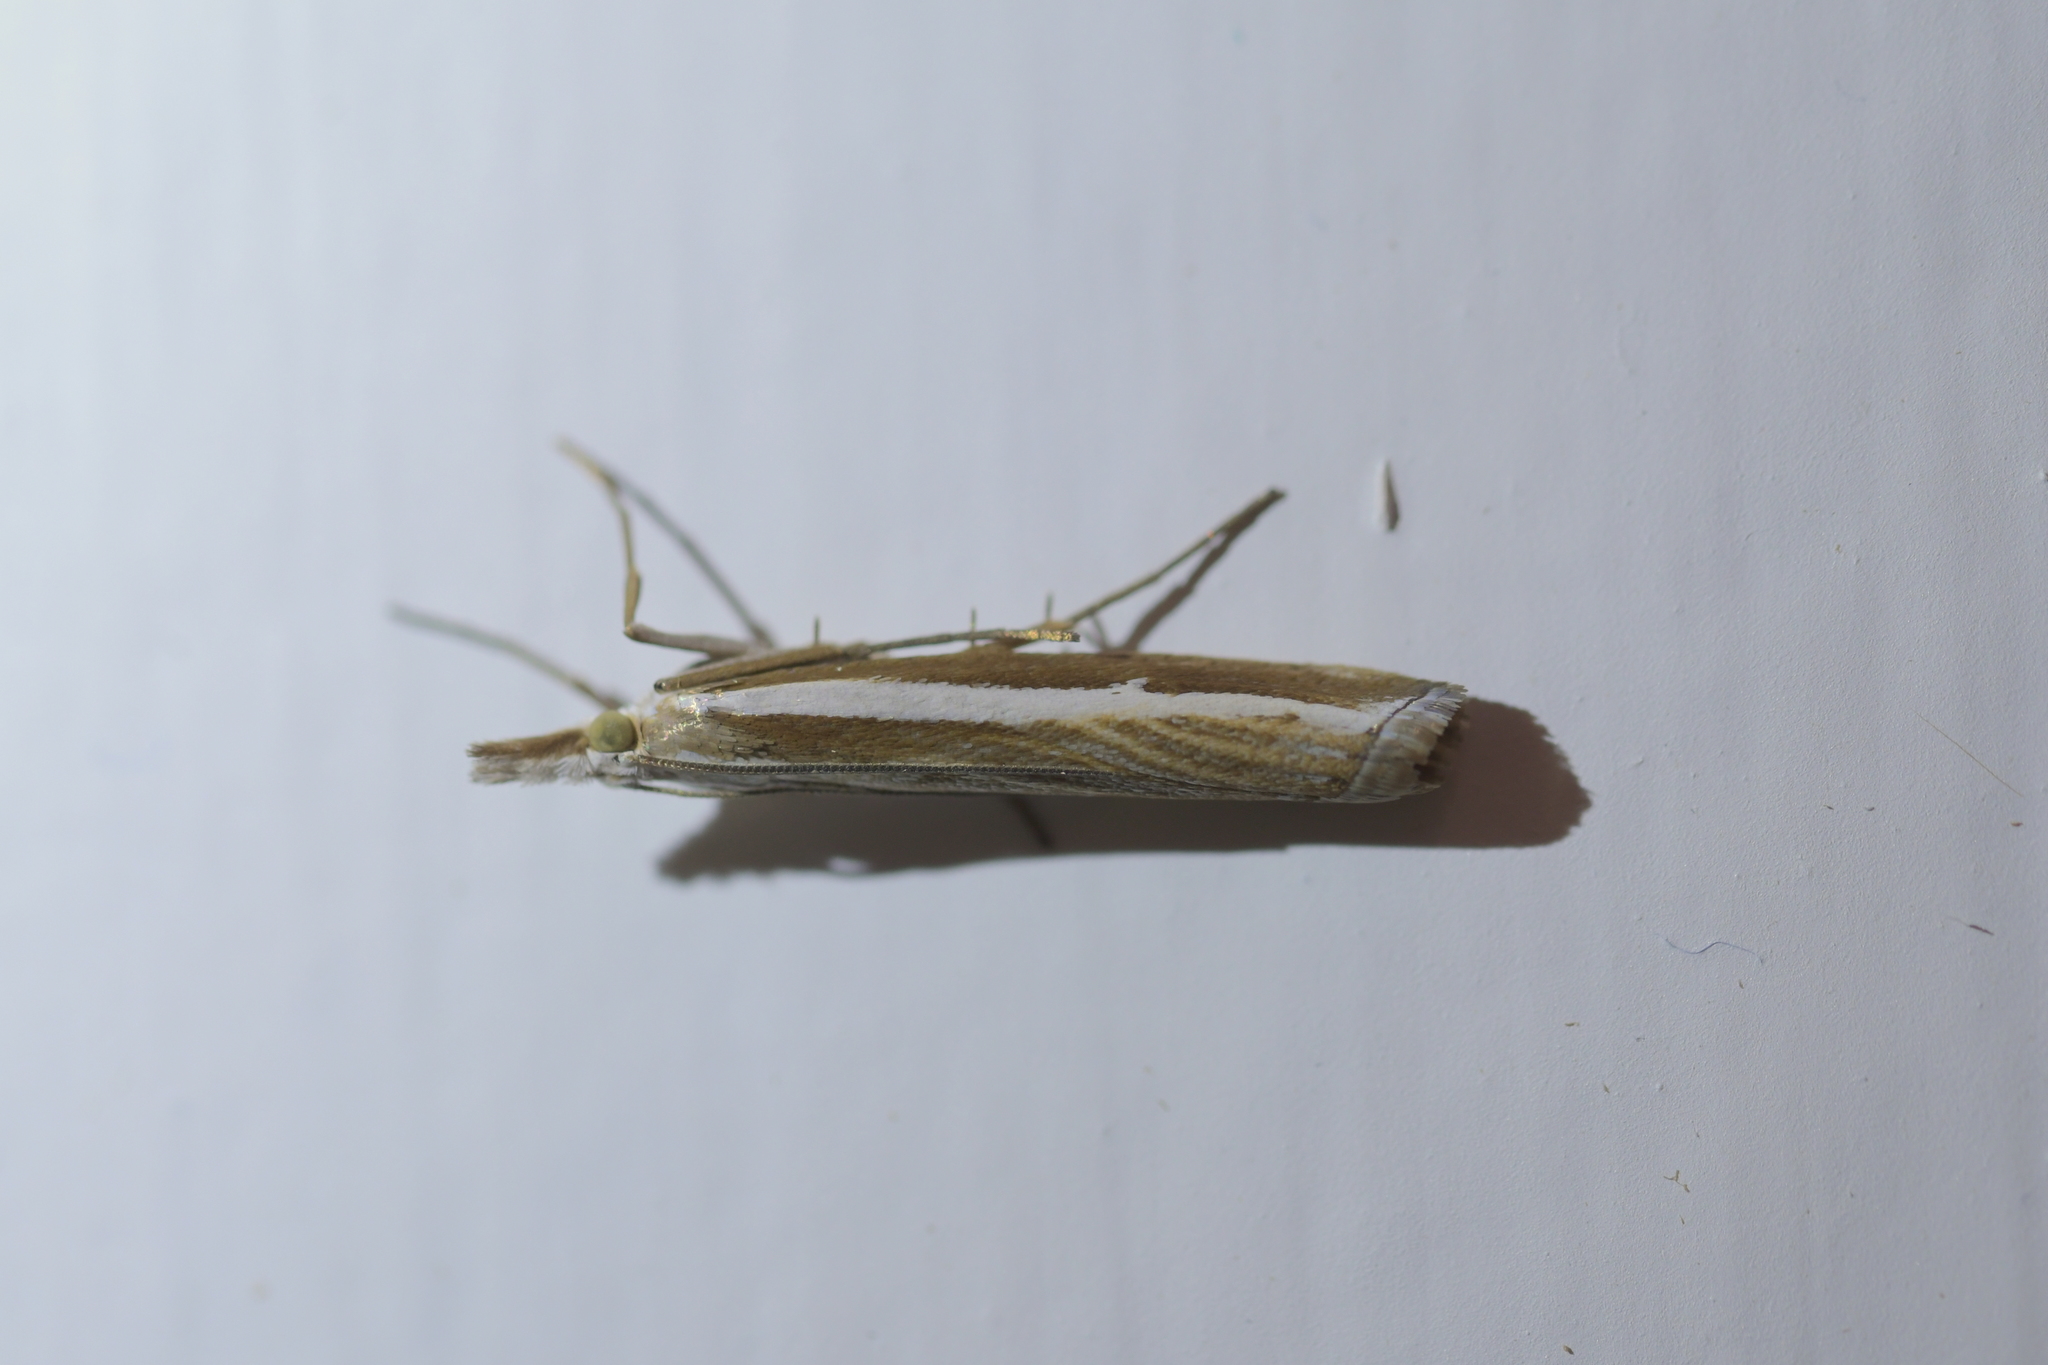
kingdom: Animalia
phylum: Arthropoda
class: Insecta
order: Lepidoptera
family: Crambidae
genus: Orocrambus
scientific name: Orocrambus vittellus
